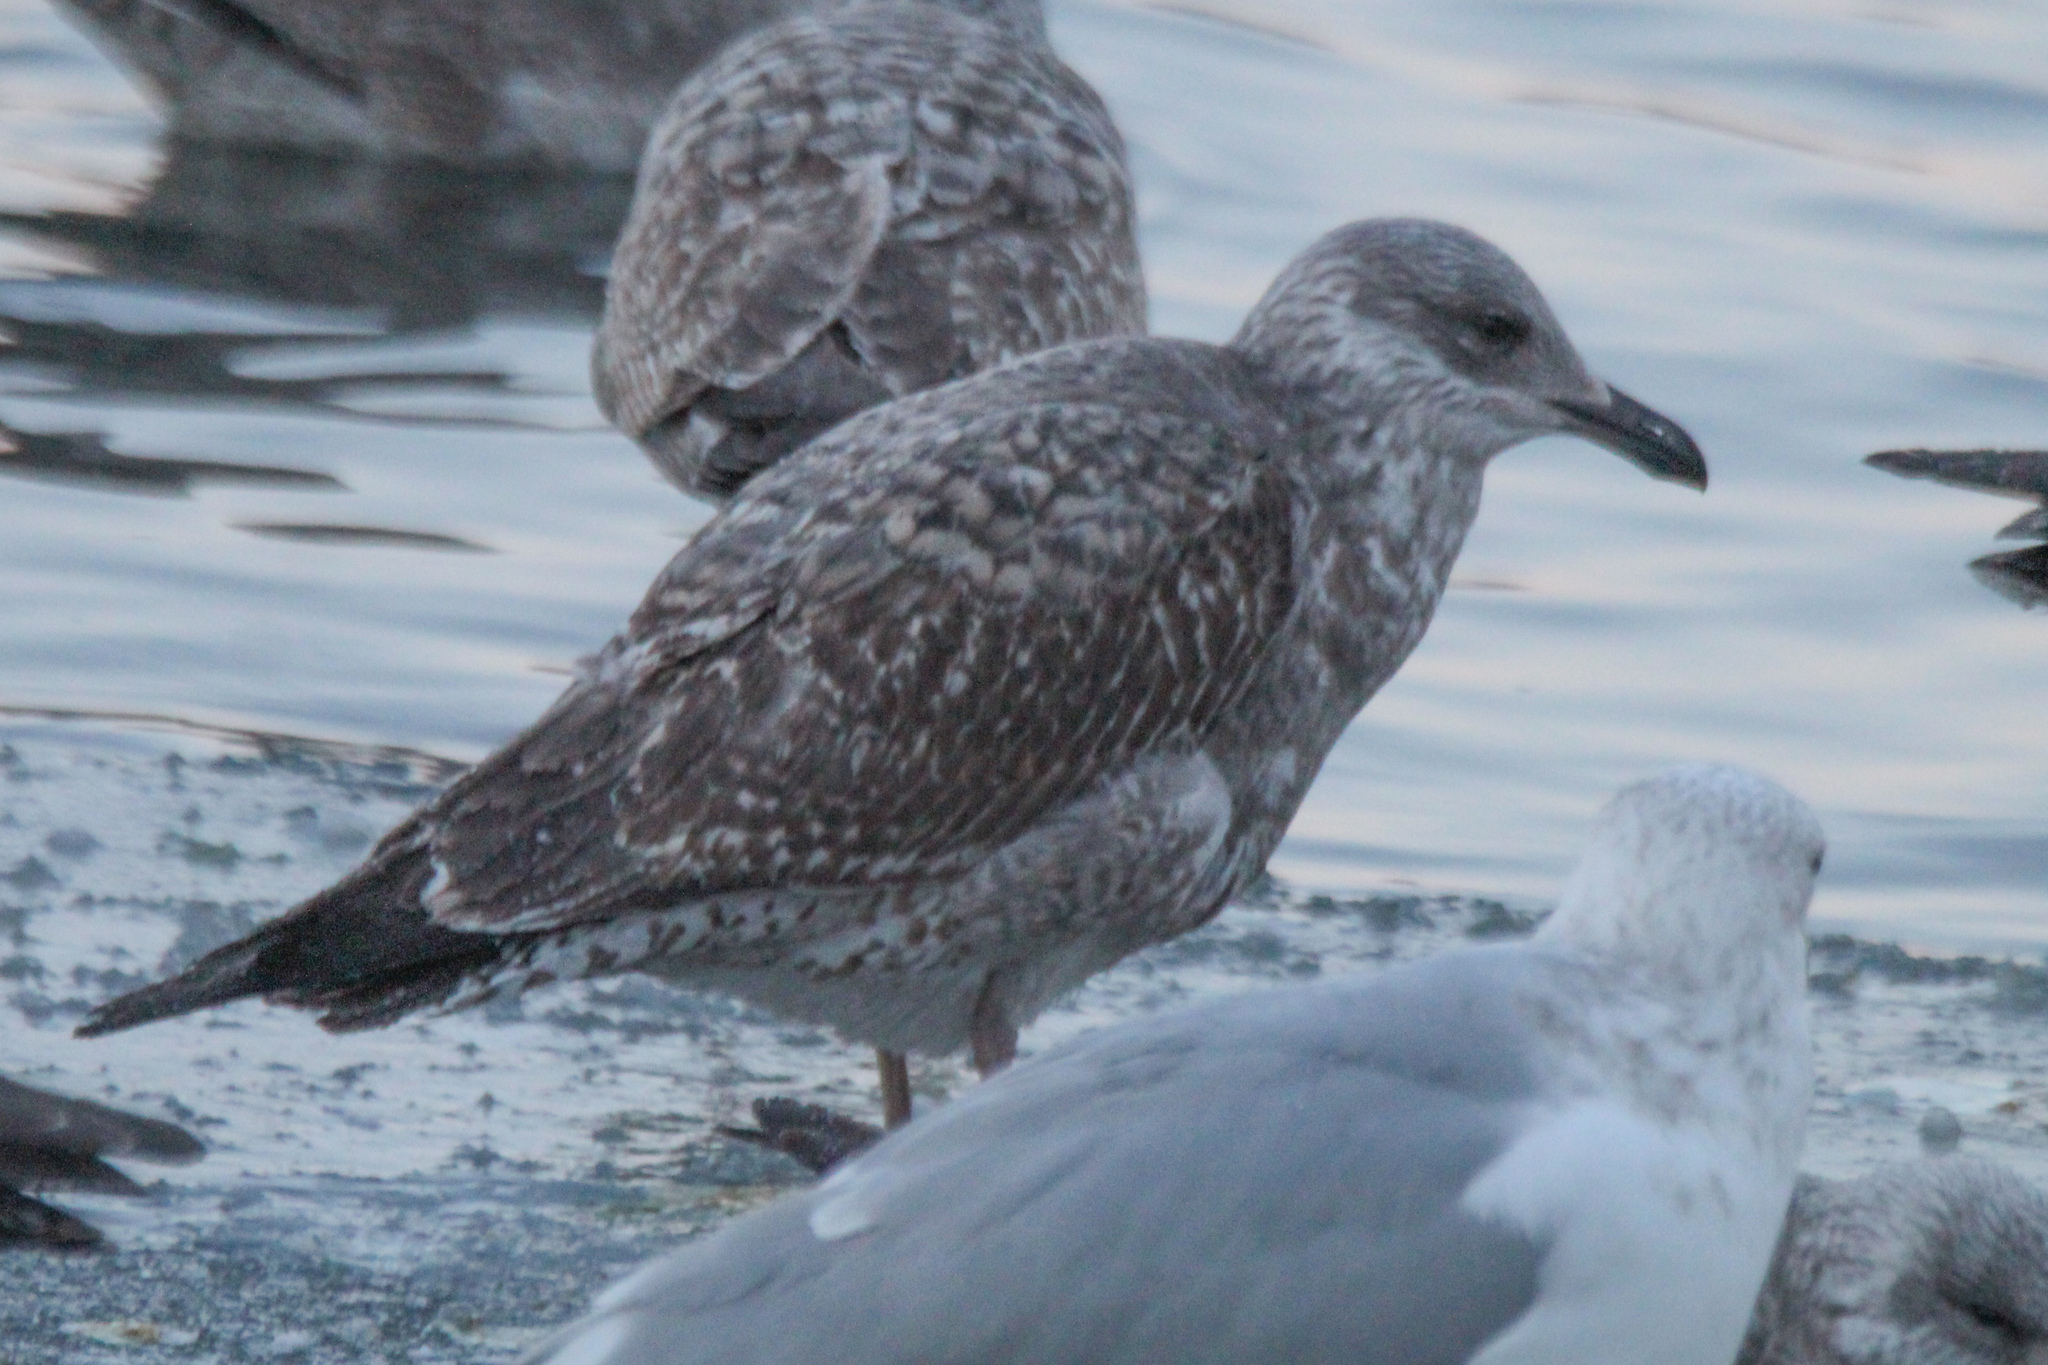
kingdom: Animalia
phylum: Chordata
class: Aves
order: Charadriiformes
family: Laridae
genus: Larus
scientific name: Larus argentatus
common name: Herring gull
